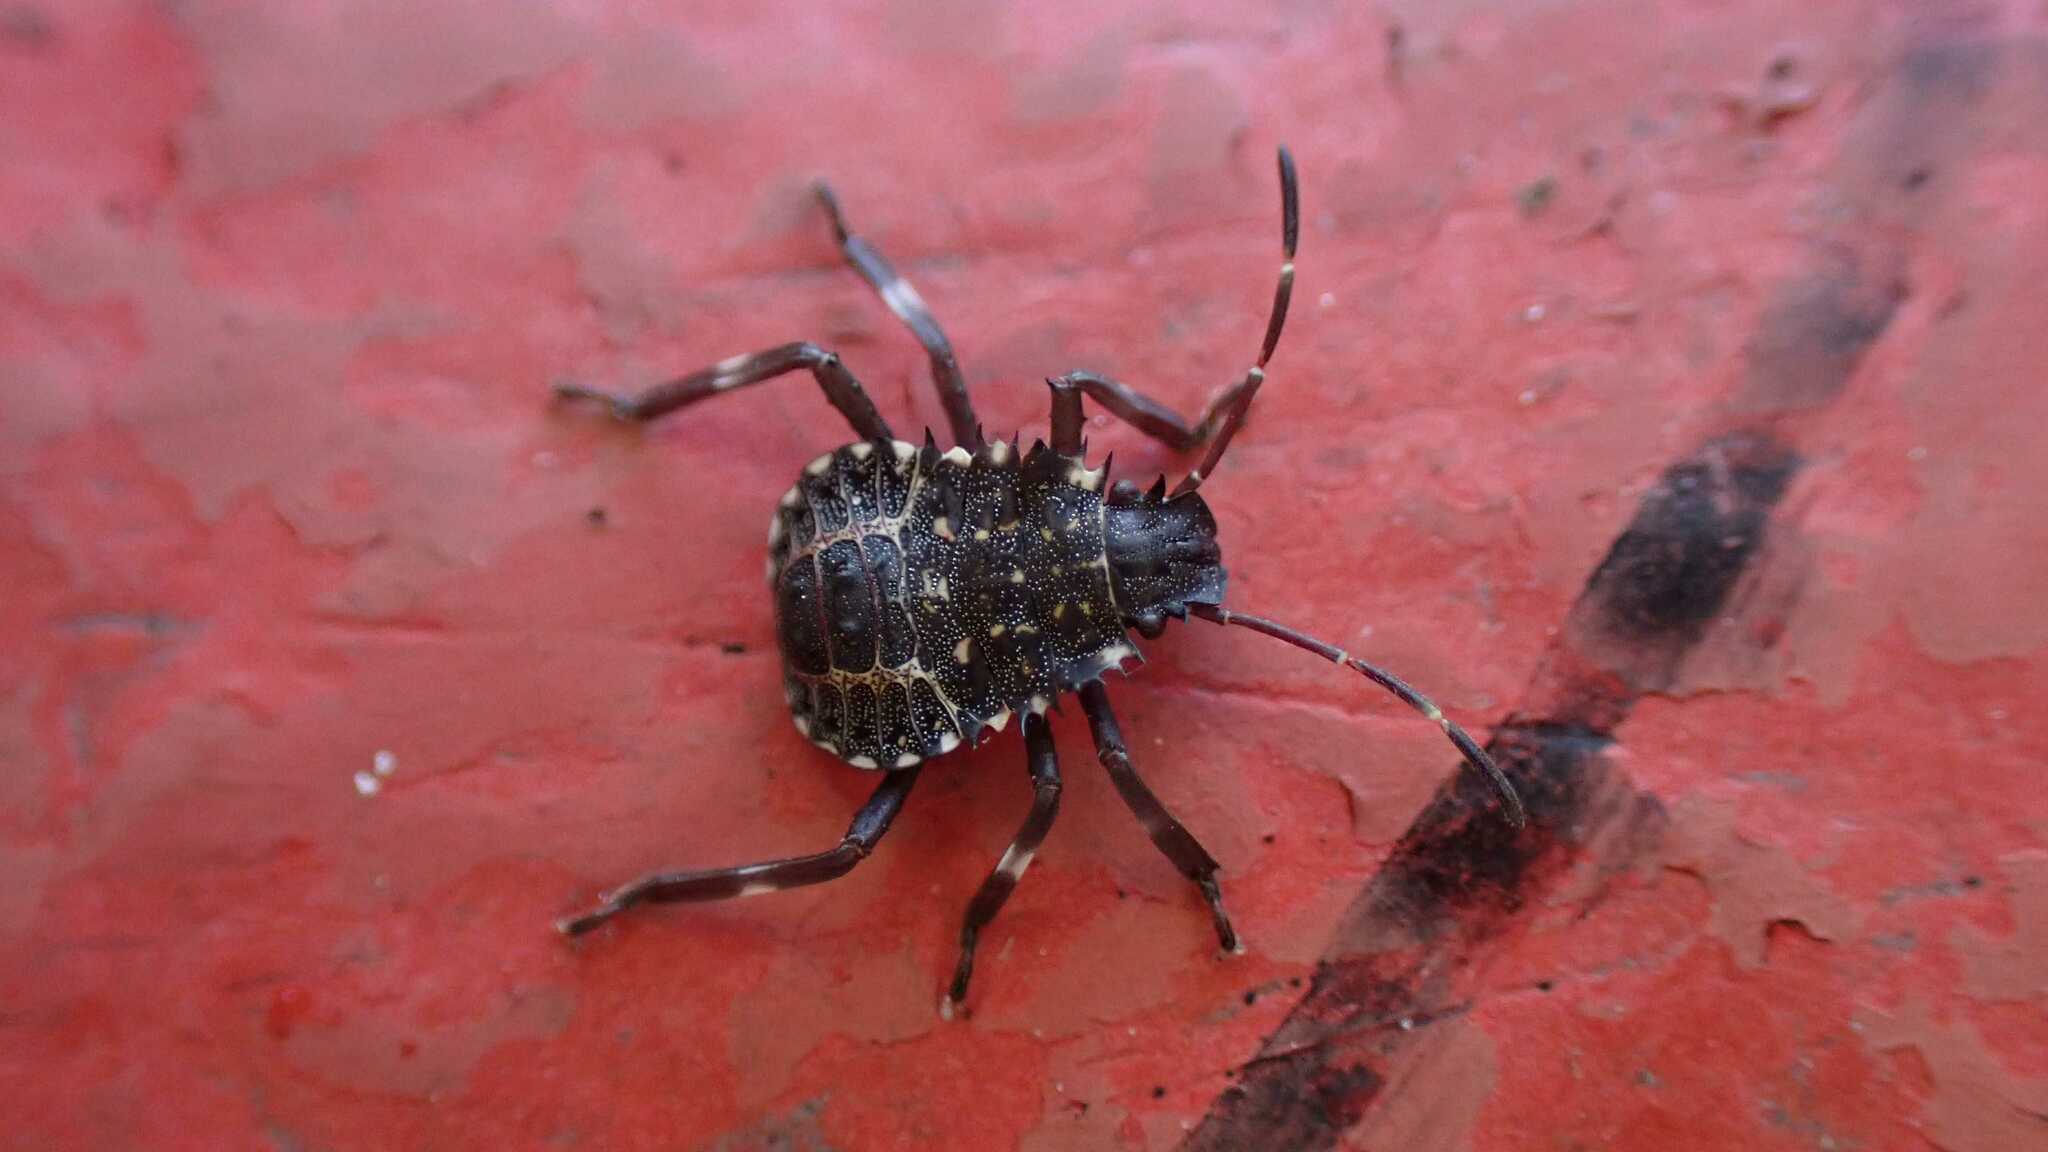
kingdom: Animalia
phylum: Arthropoda
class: Insecta
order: Hemiptera
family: Pentatomidae
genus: Halyomorpha
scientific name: Halyomorpha halys
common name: Brown marmorated stink bug
